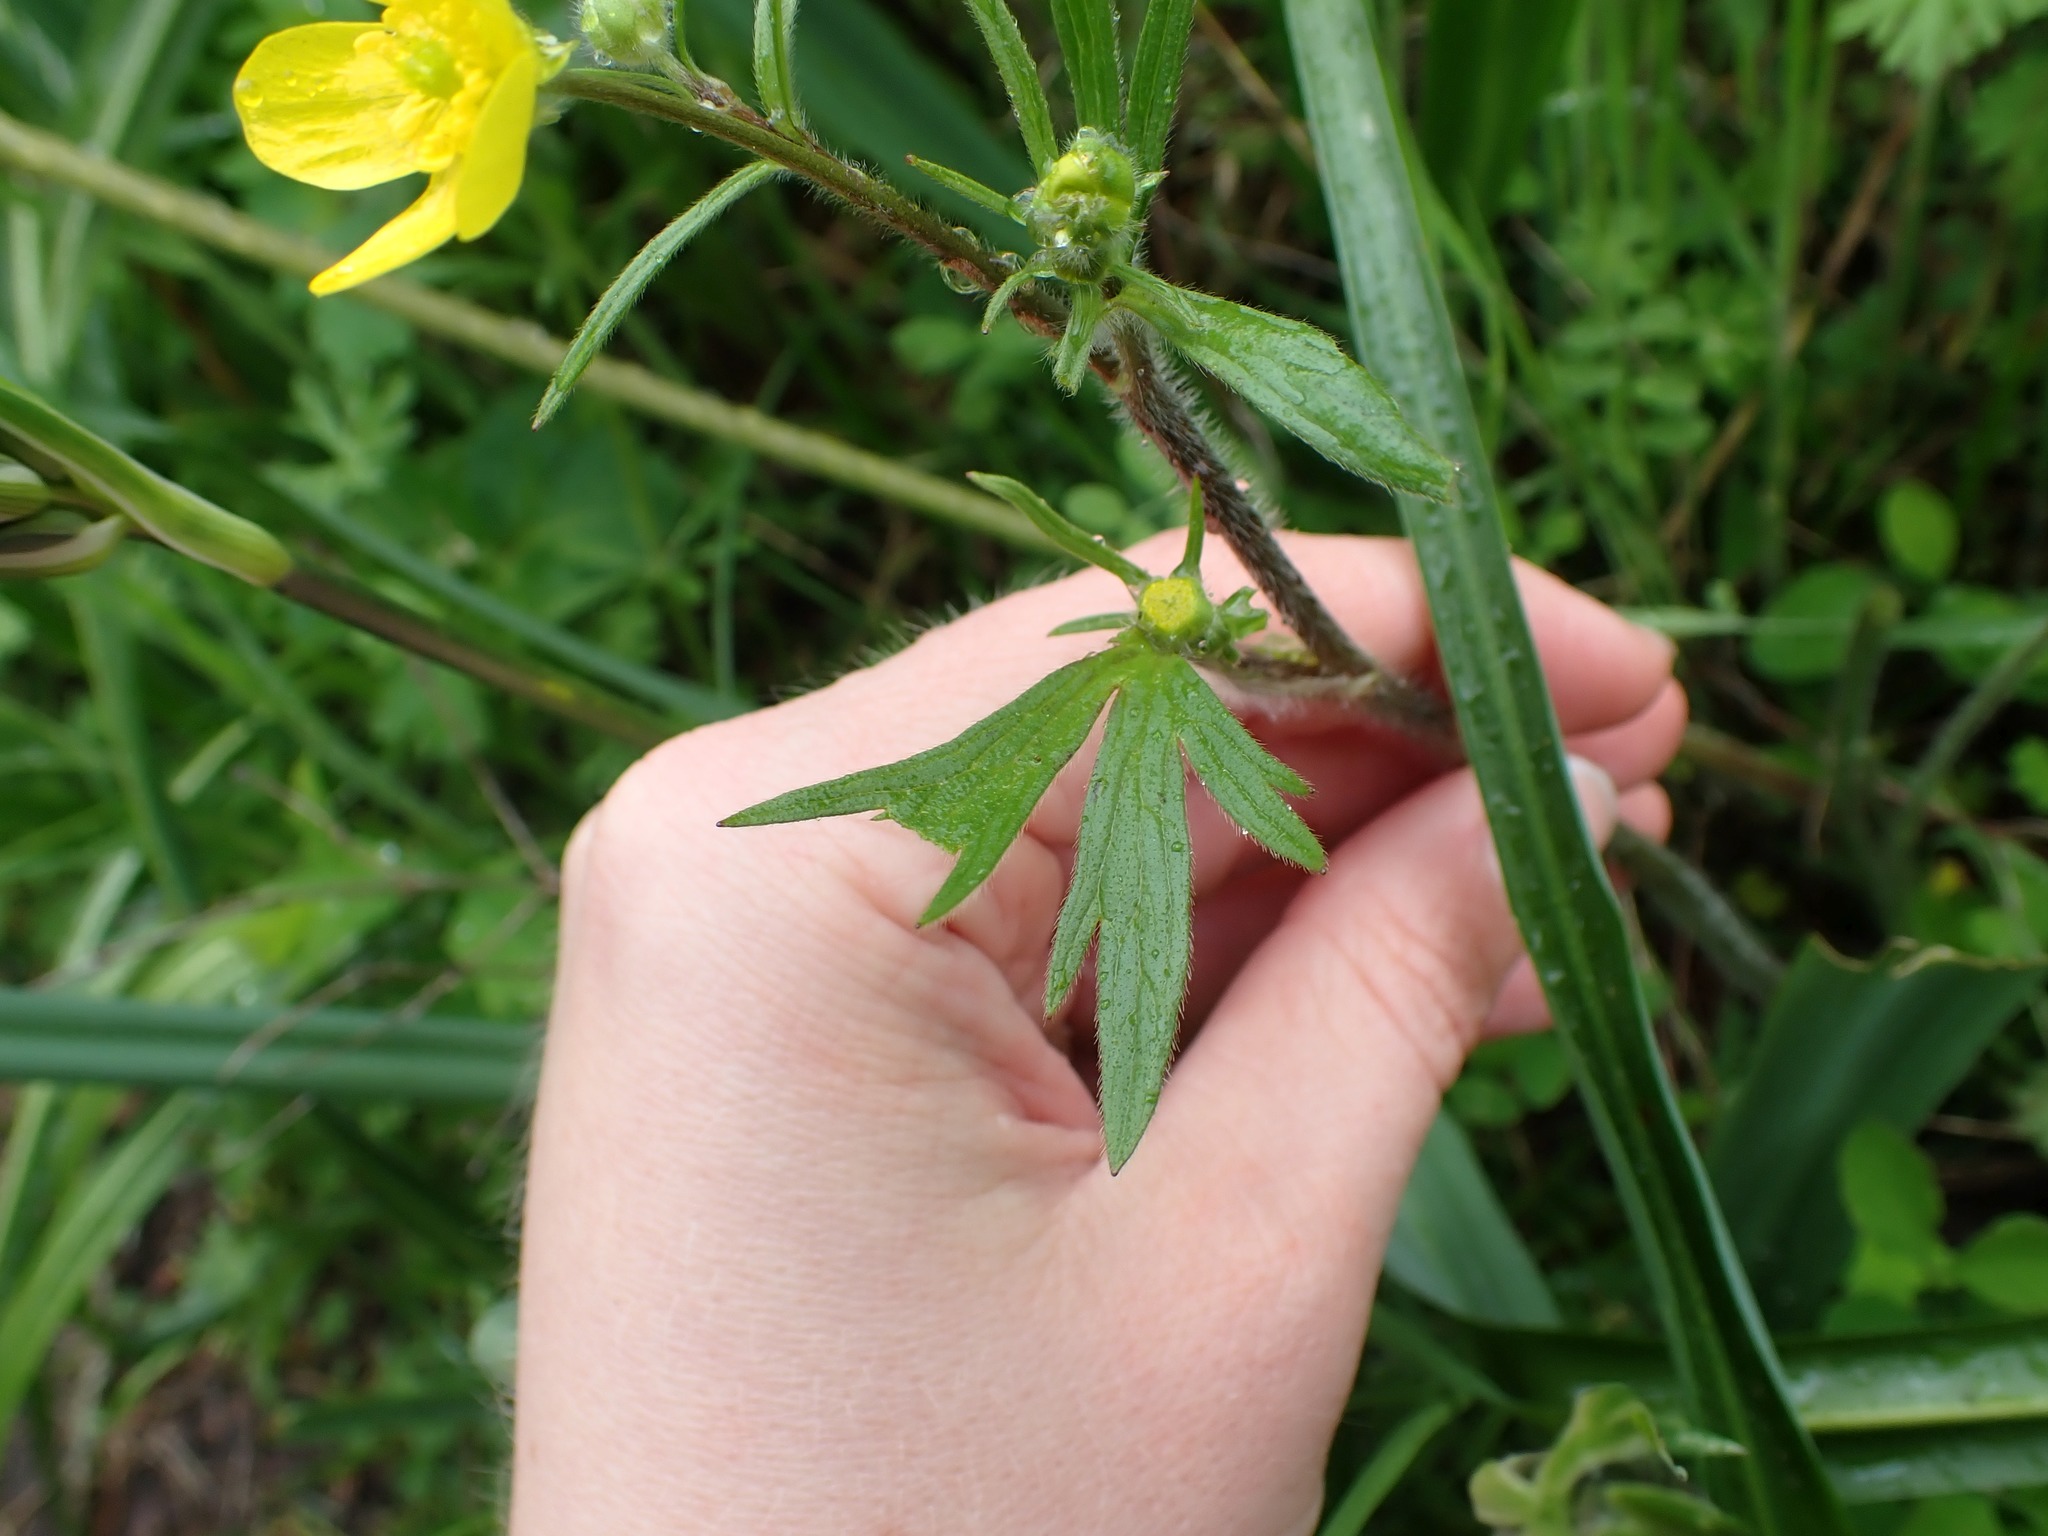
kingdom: Plantae
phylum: Tracheophyta
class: Magnoliopsida
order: Ranunculales
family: Ranunculaceae
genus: Ranunculus
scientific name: Ranunculus occidentalis
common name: Western buttercup
